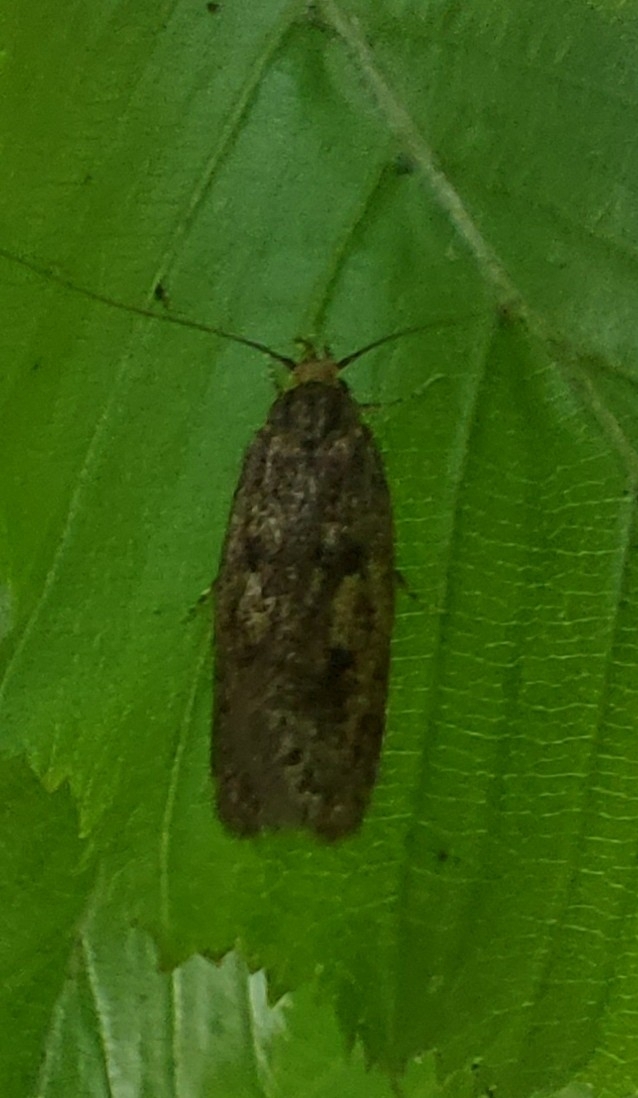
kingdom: Animalia
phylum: Arthropoda
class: Insecta
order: Lepidoptera
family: Oecophoridae
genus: Hofmannophila
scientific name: Hofmannophila pseudospretella
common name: Brown house moth
